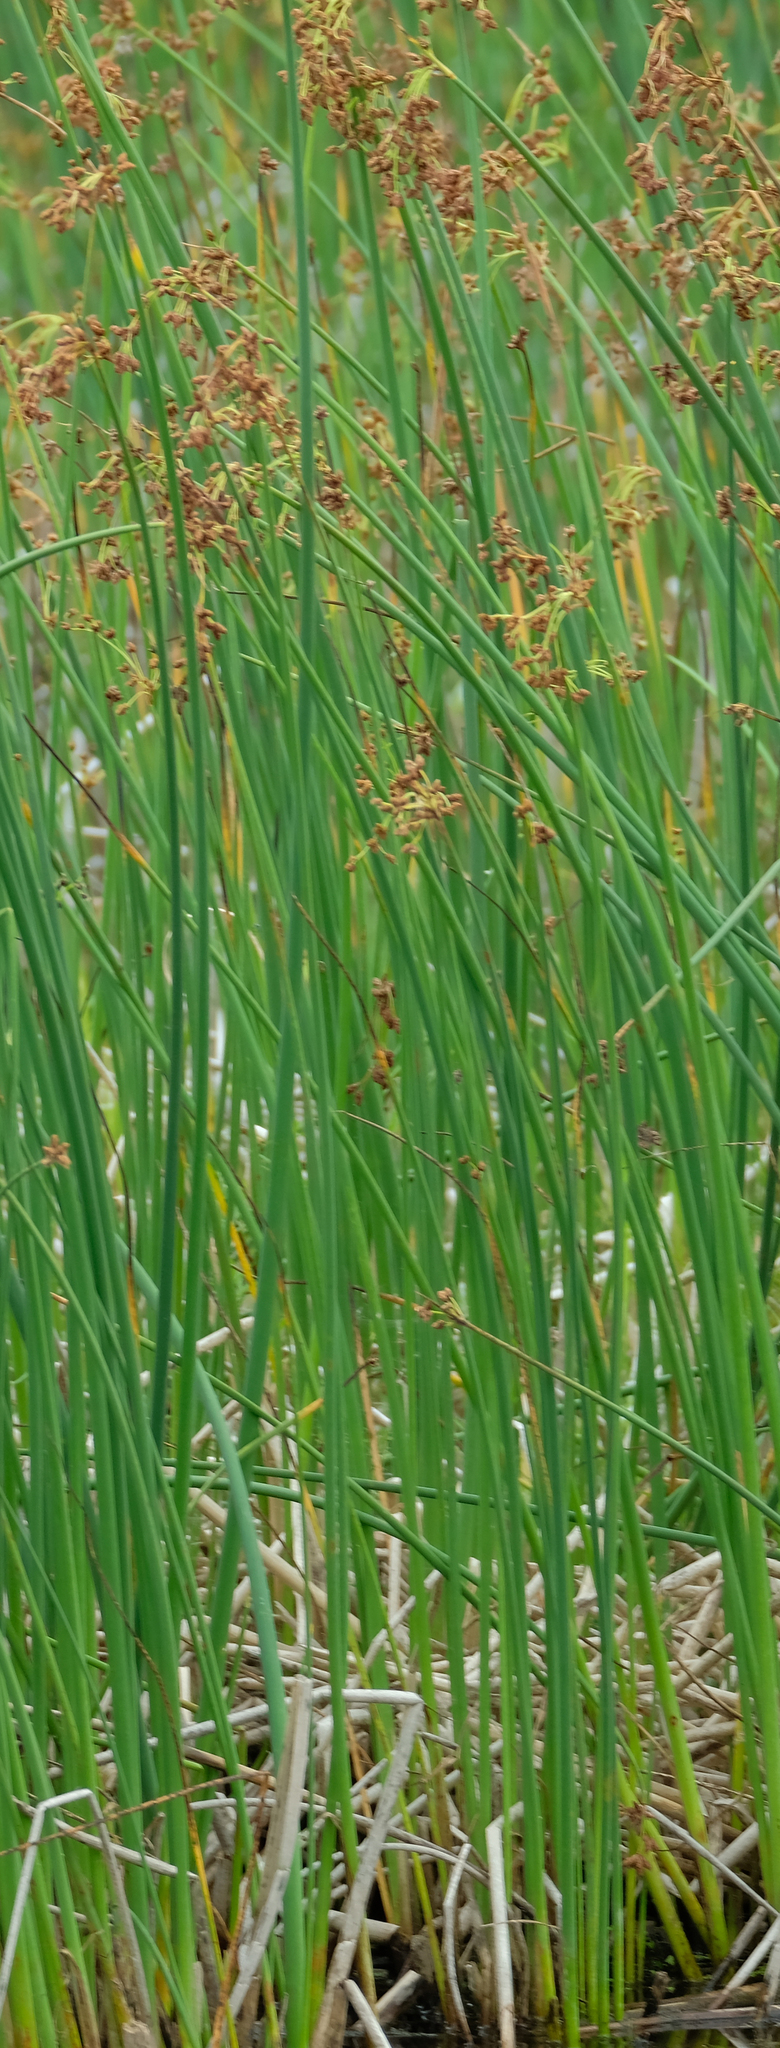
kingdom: Plantae
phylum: Tracheophyta
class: Liliopsida
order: Poales
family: Cyperaceae
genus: Schoenoplectus
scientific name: Schoenoplectus tabernaemontani
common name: Grey club-rush
